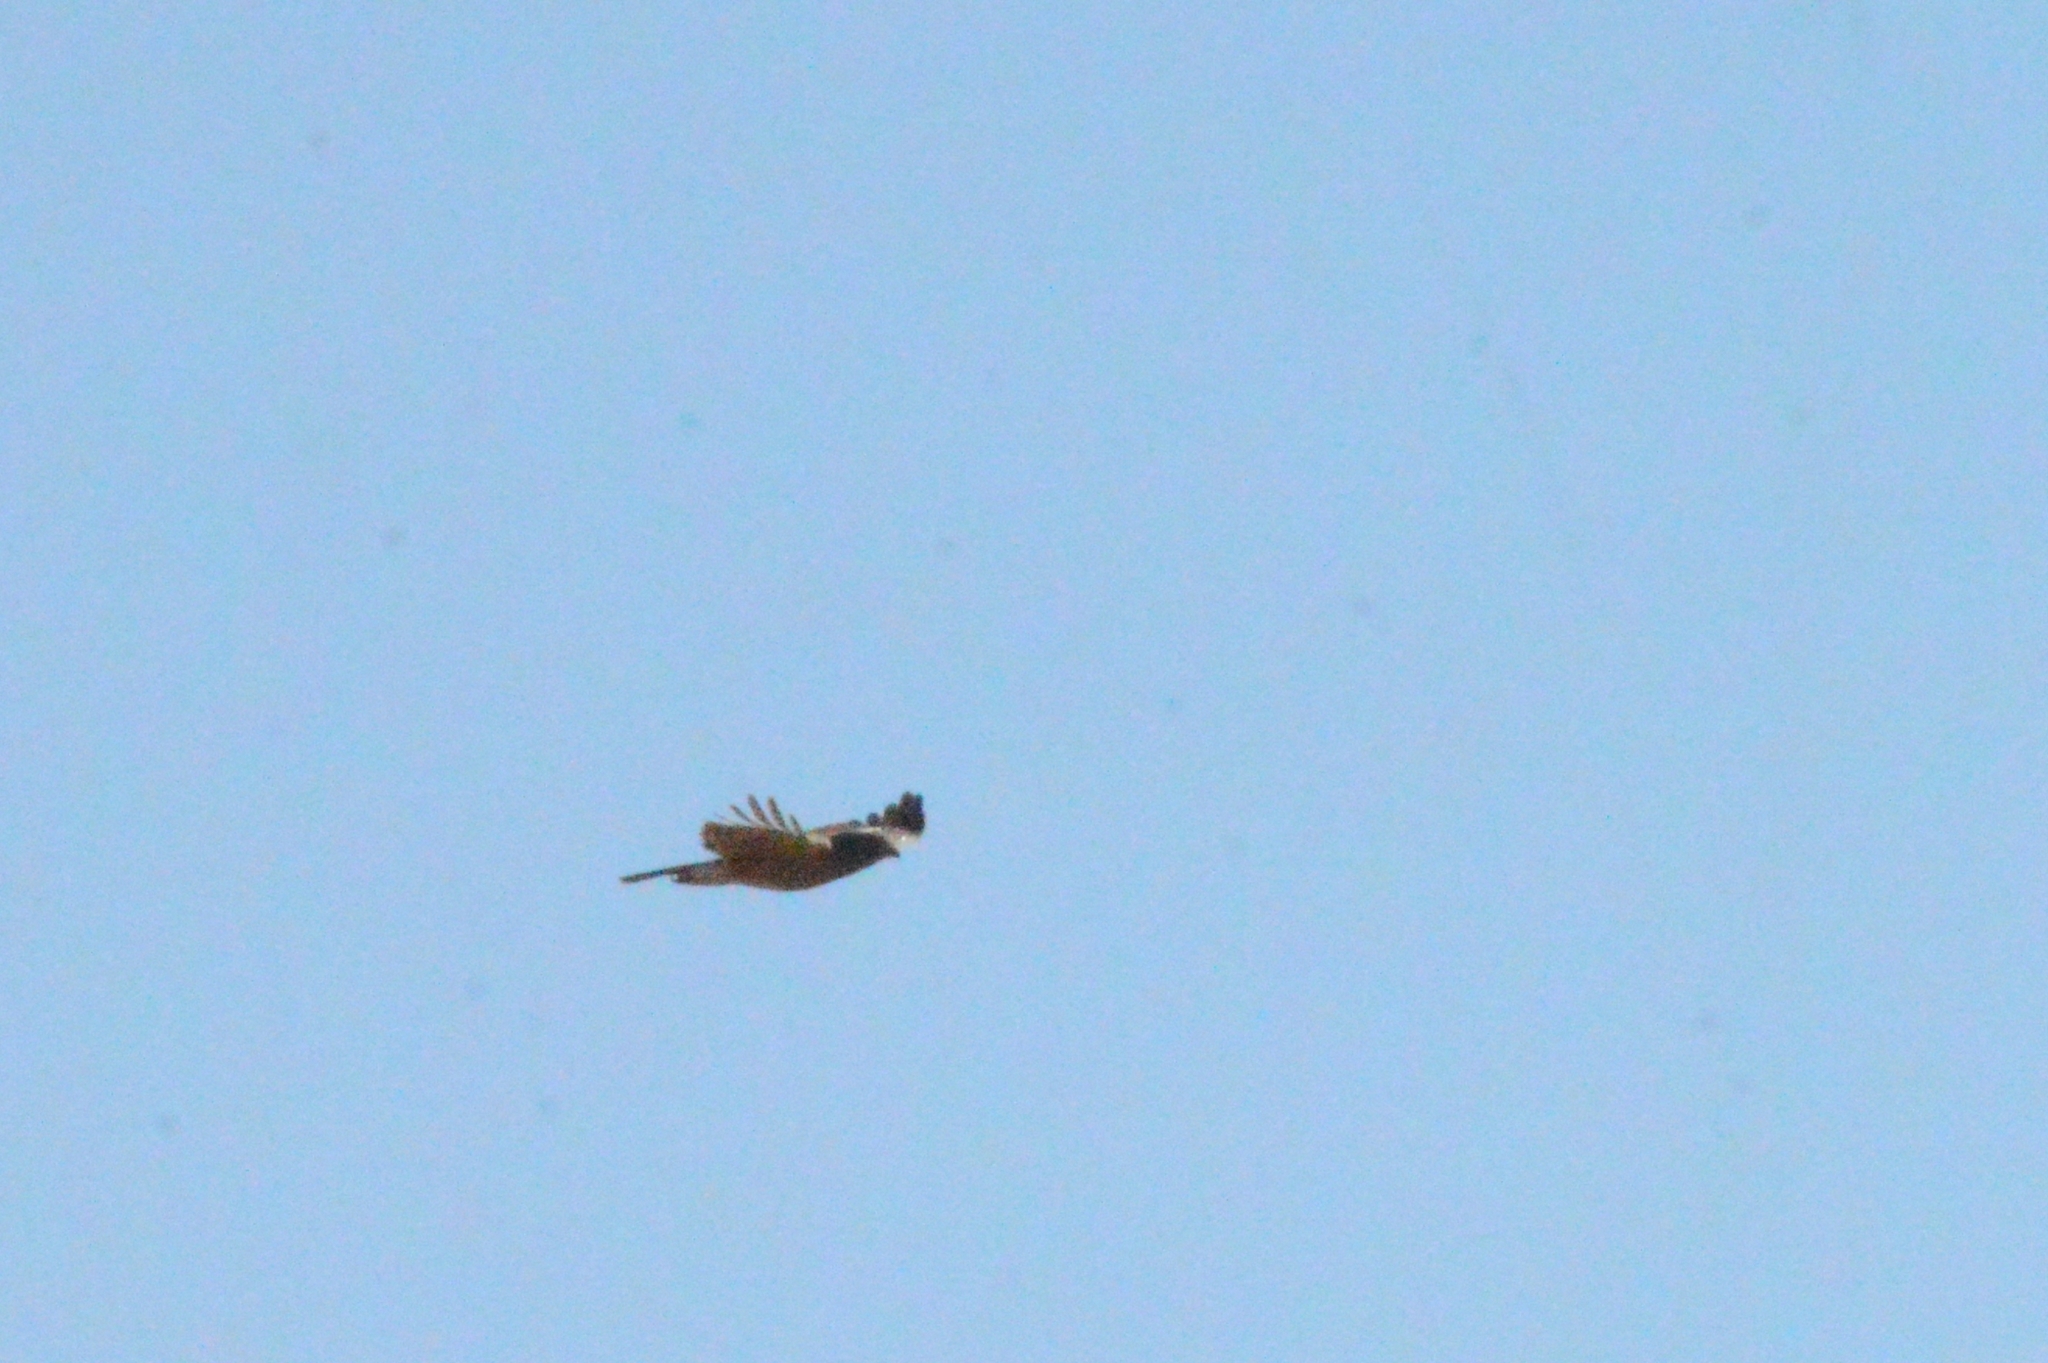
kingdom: Animalia
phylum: Chordata
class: Aves
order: Accipitriformes
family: Accipitridae
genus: Rupornis
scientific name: Rupornis magnirostris
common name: Roadside hawk
